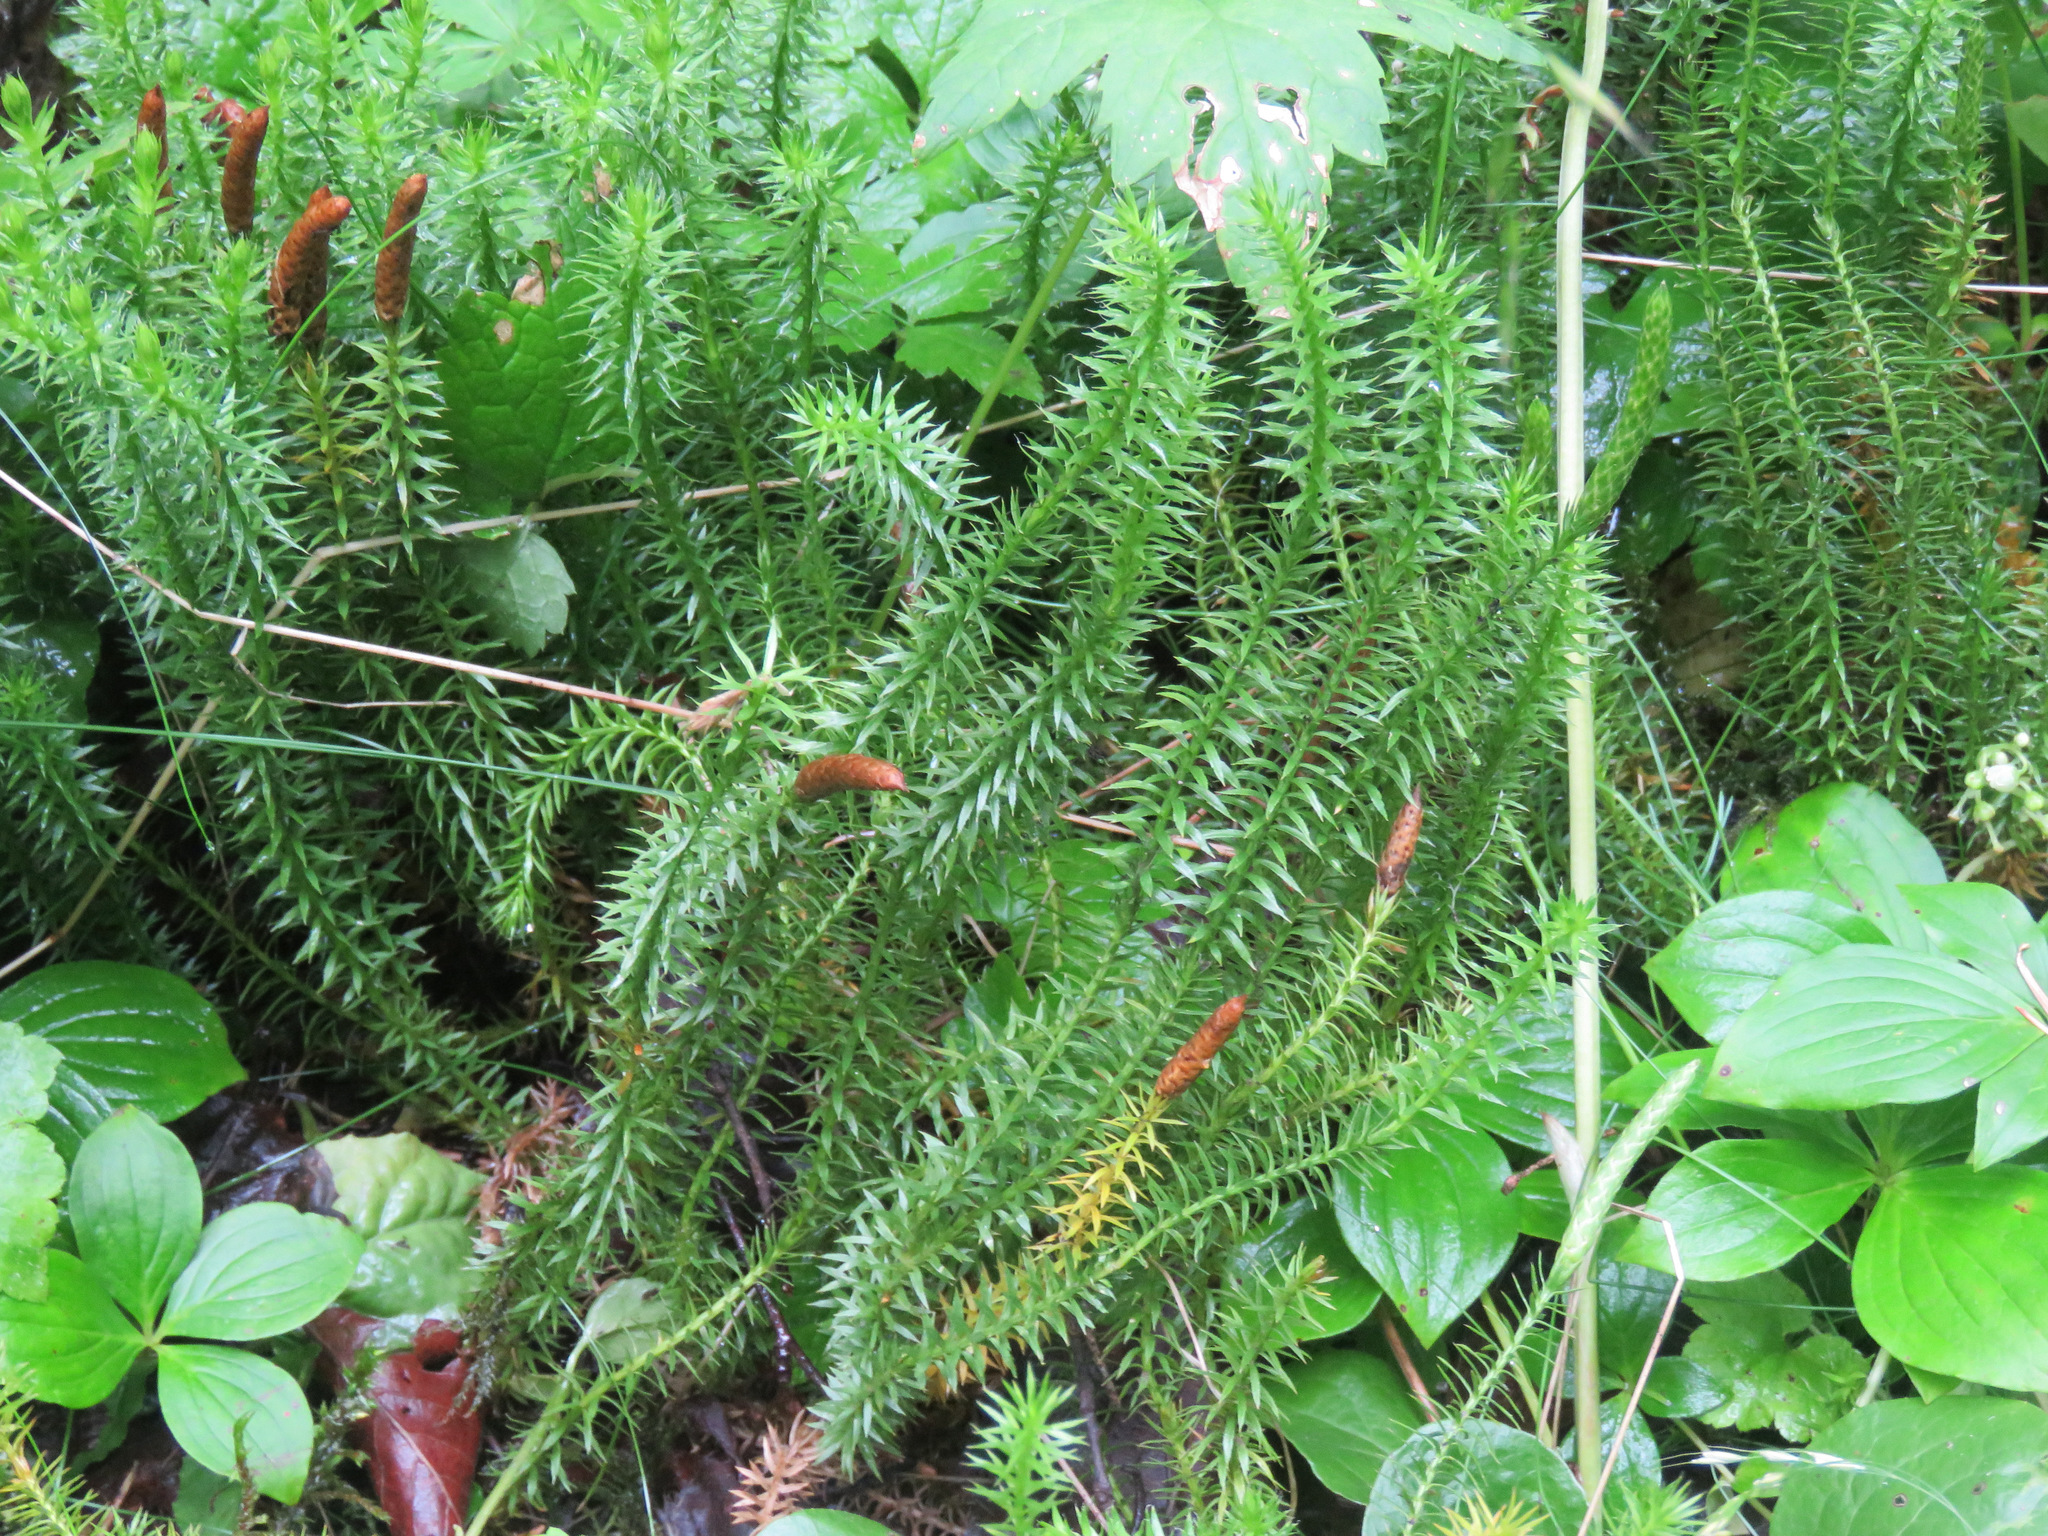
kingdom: Plantae
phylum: Tracheophyta
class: Lycopodiopsida
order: Lycopodiales
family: Lycopodiaceae
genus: Spinulum
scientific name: Spinulum annotinum
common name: Interrupted club-moss
